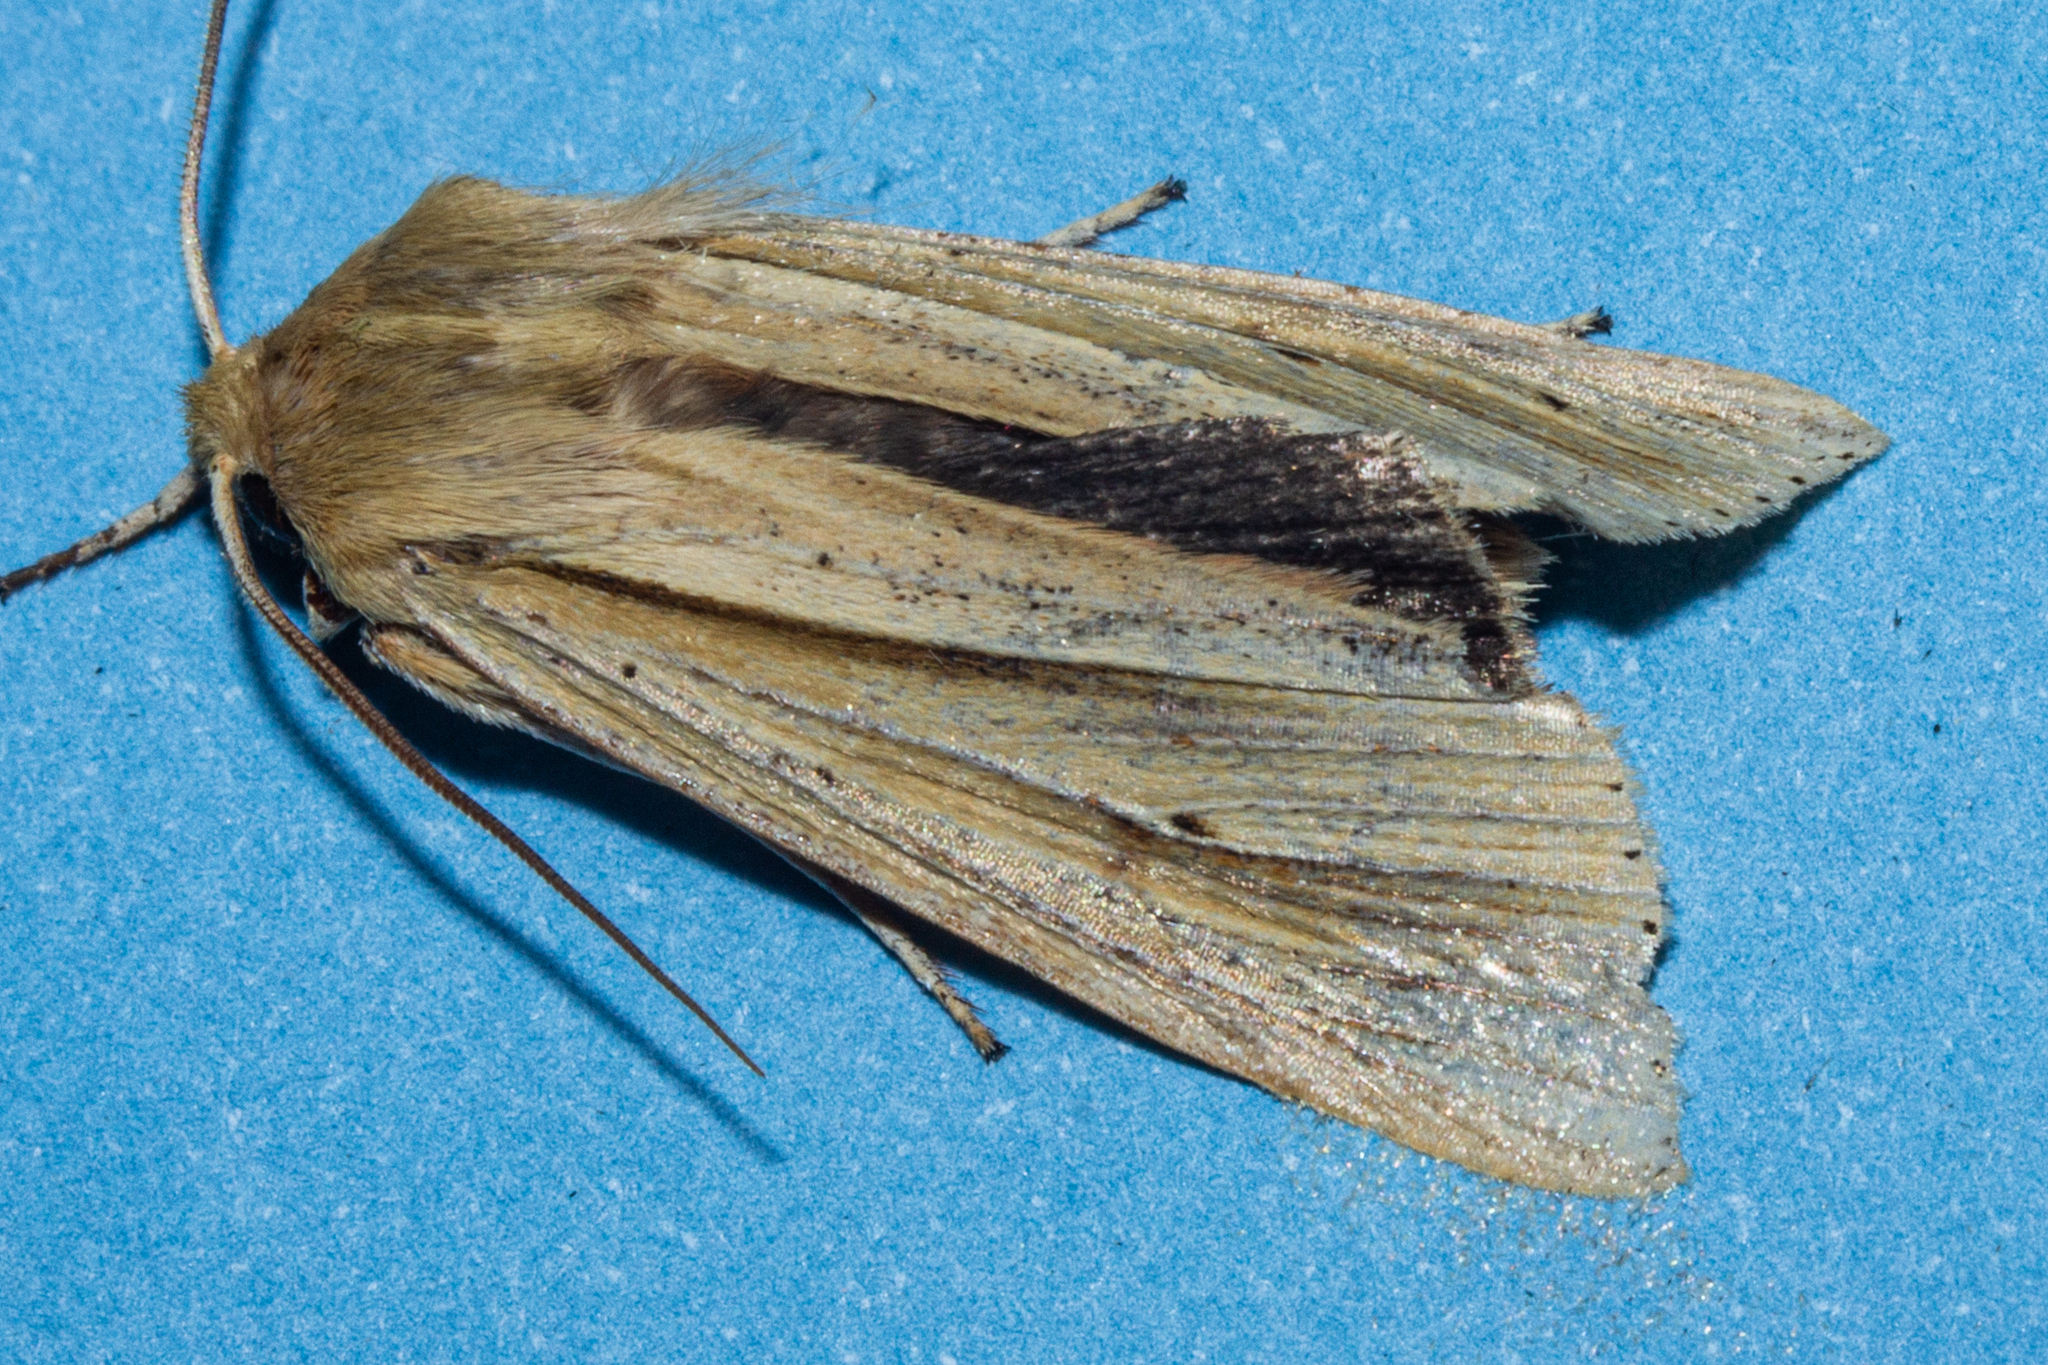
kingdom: Animalia
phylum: Arthropoda
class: Insecta
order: Lepidoptera
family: Noctuidae
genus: Ichneutica
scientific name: Ichneutica sulcana
